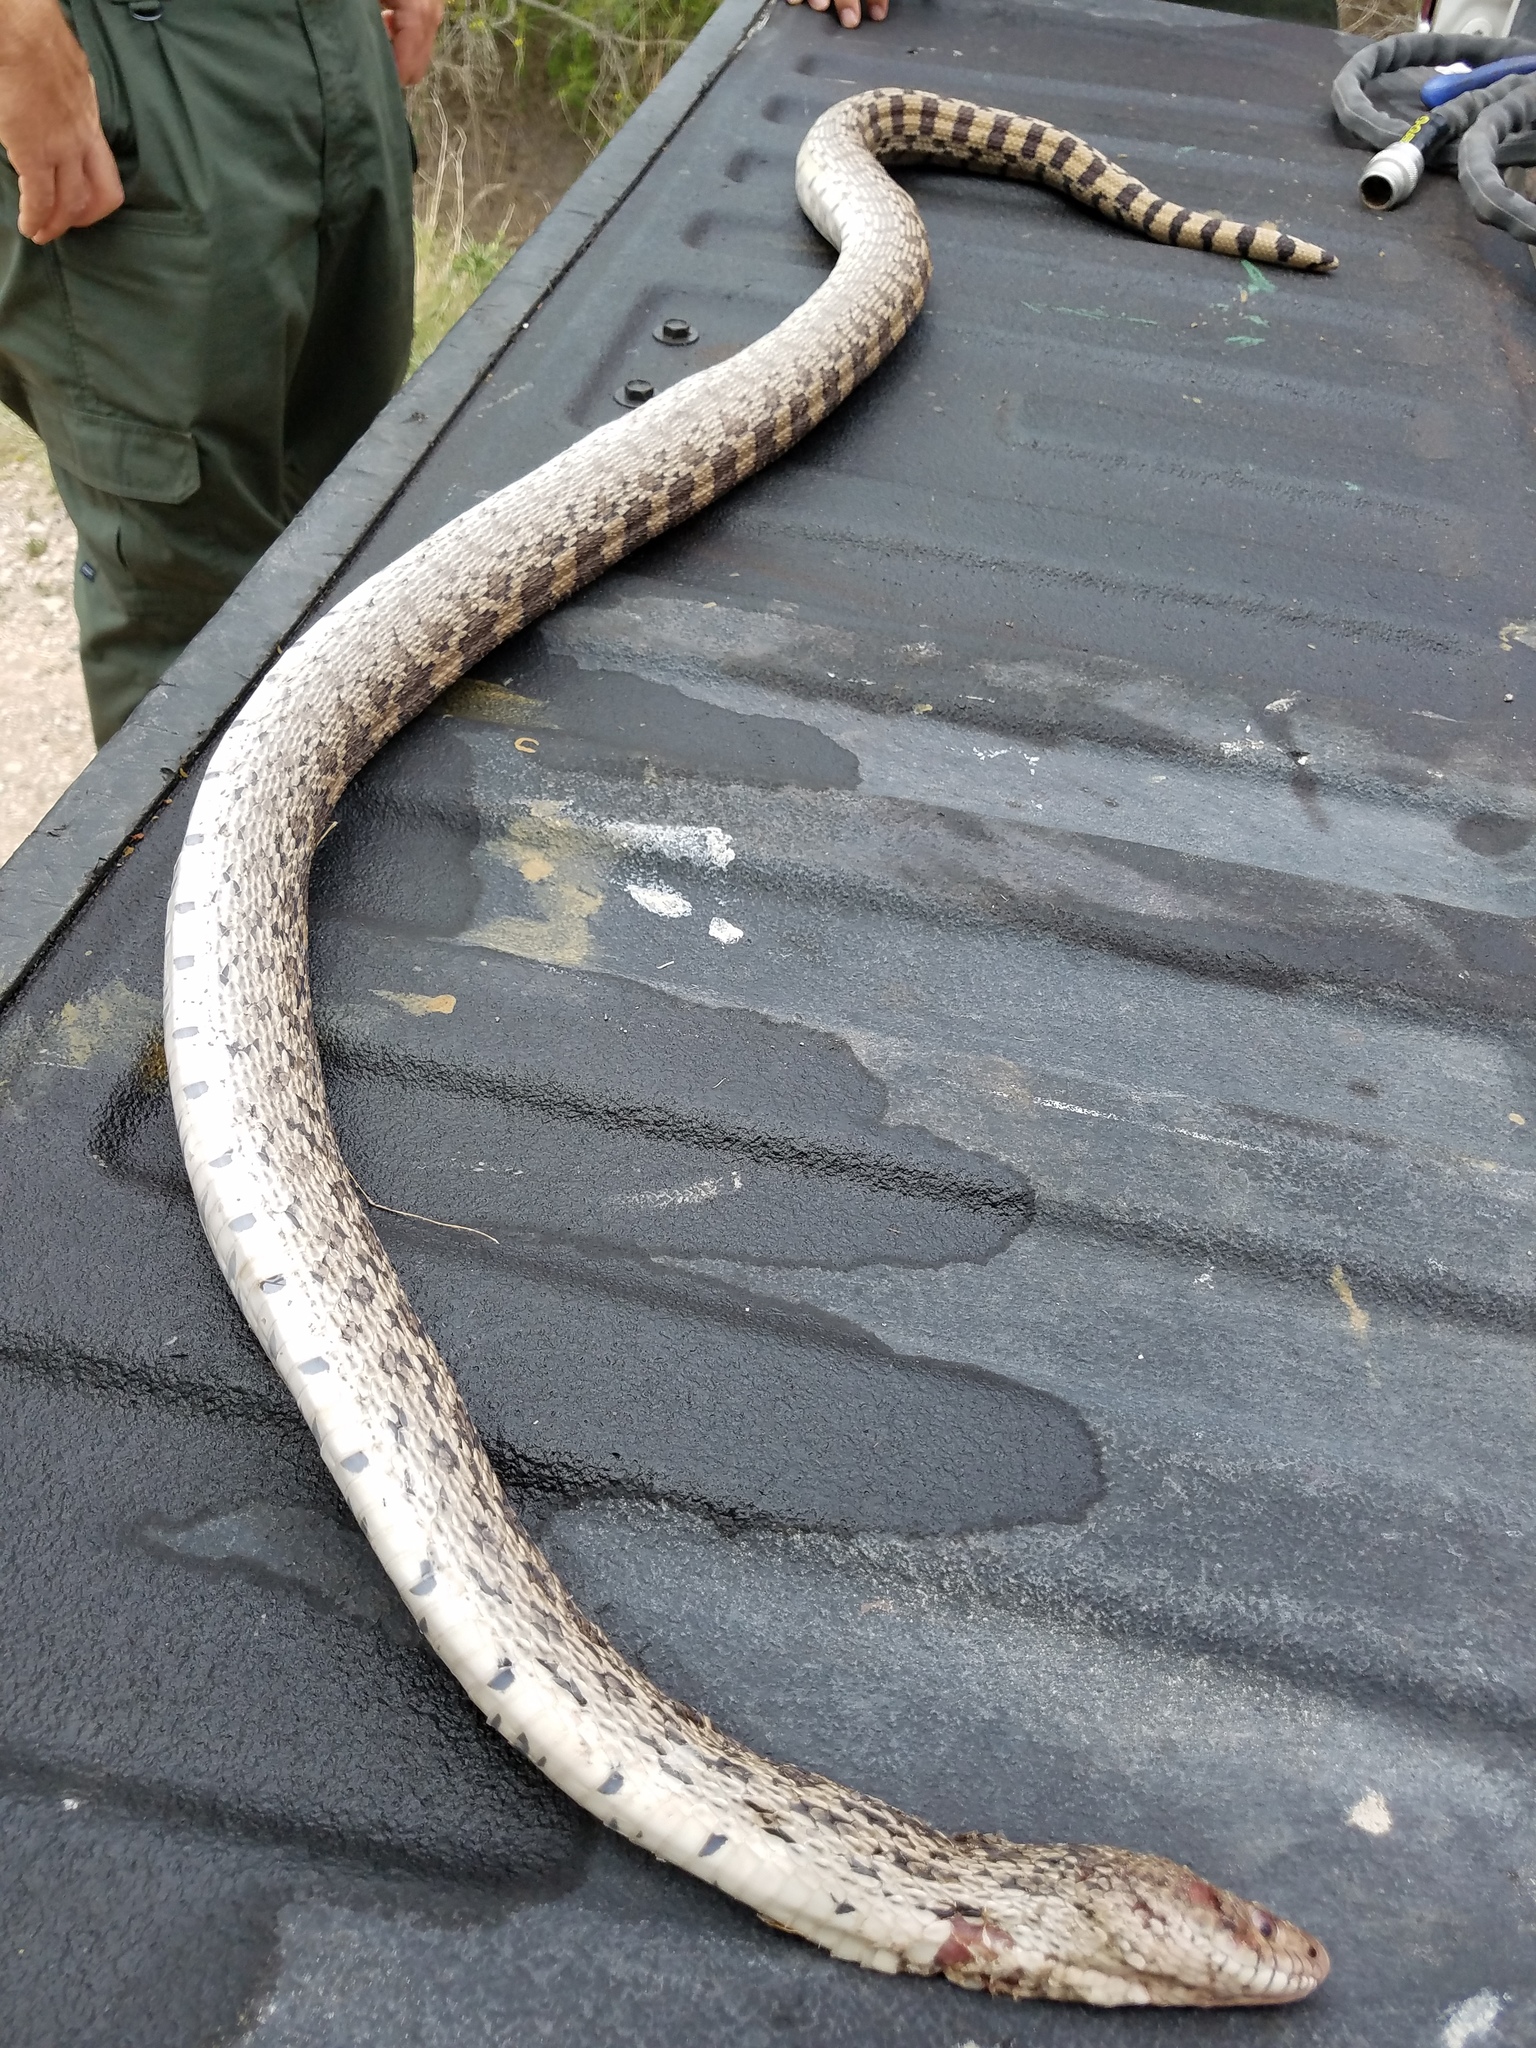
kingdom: Animalia
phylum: Chordata
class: Squamata
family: Colubridae
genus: Pituophis
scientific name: Pituophis catenifer
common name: Gopher snake
